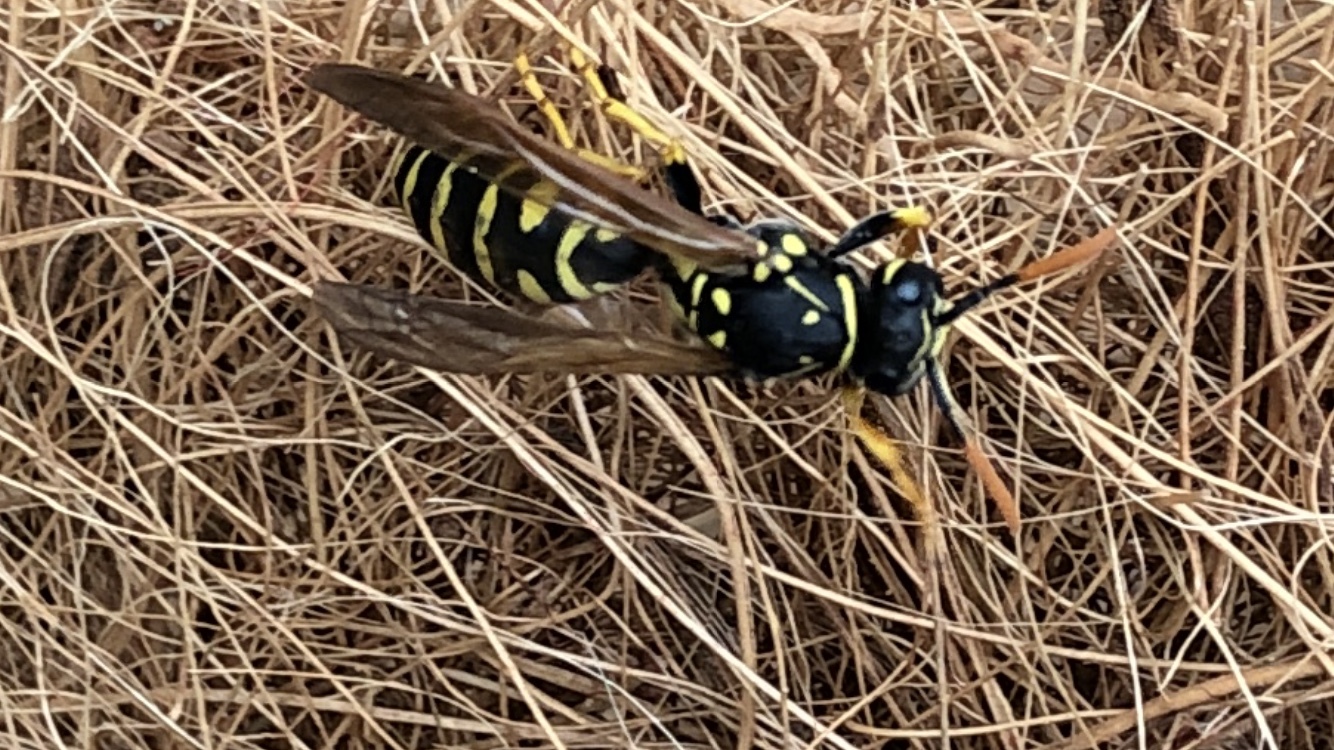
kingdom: Animalia
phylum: Arthropoda
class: Insecta
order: Hymenoptera
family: Eumenidae
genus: Polistes
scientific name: Polistes dominula
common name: Paper wasp
